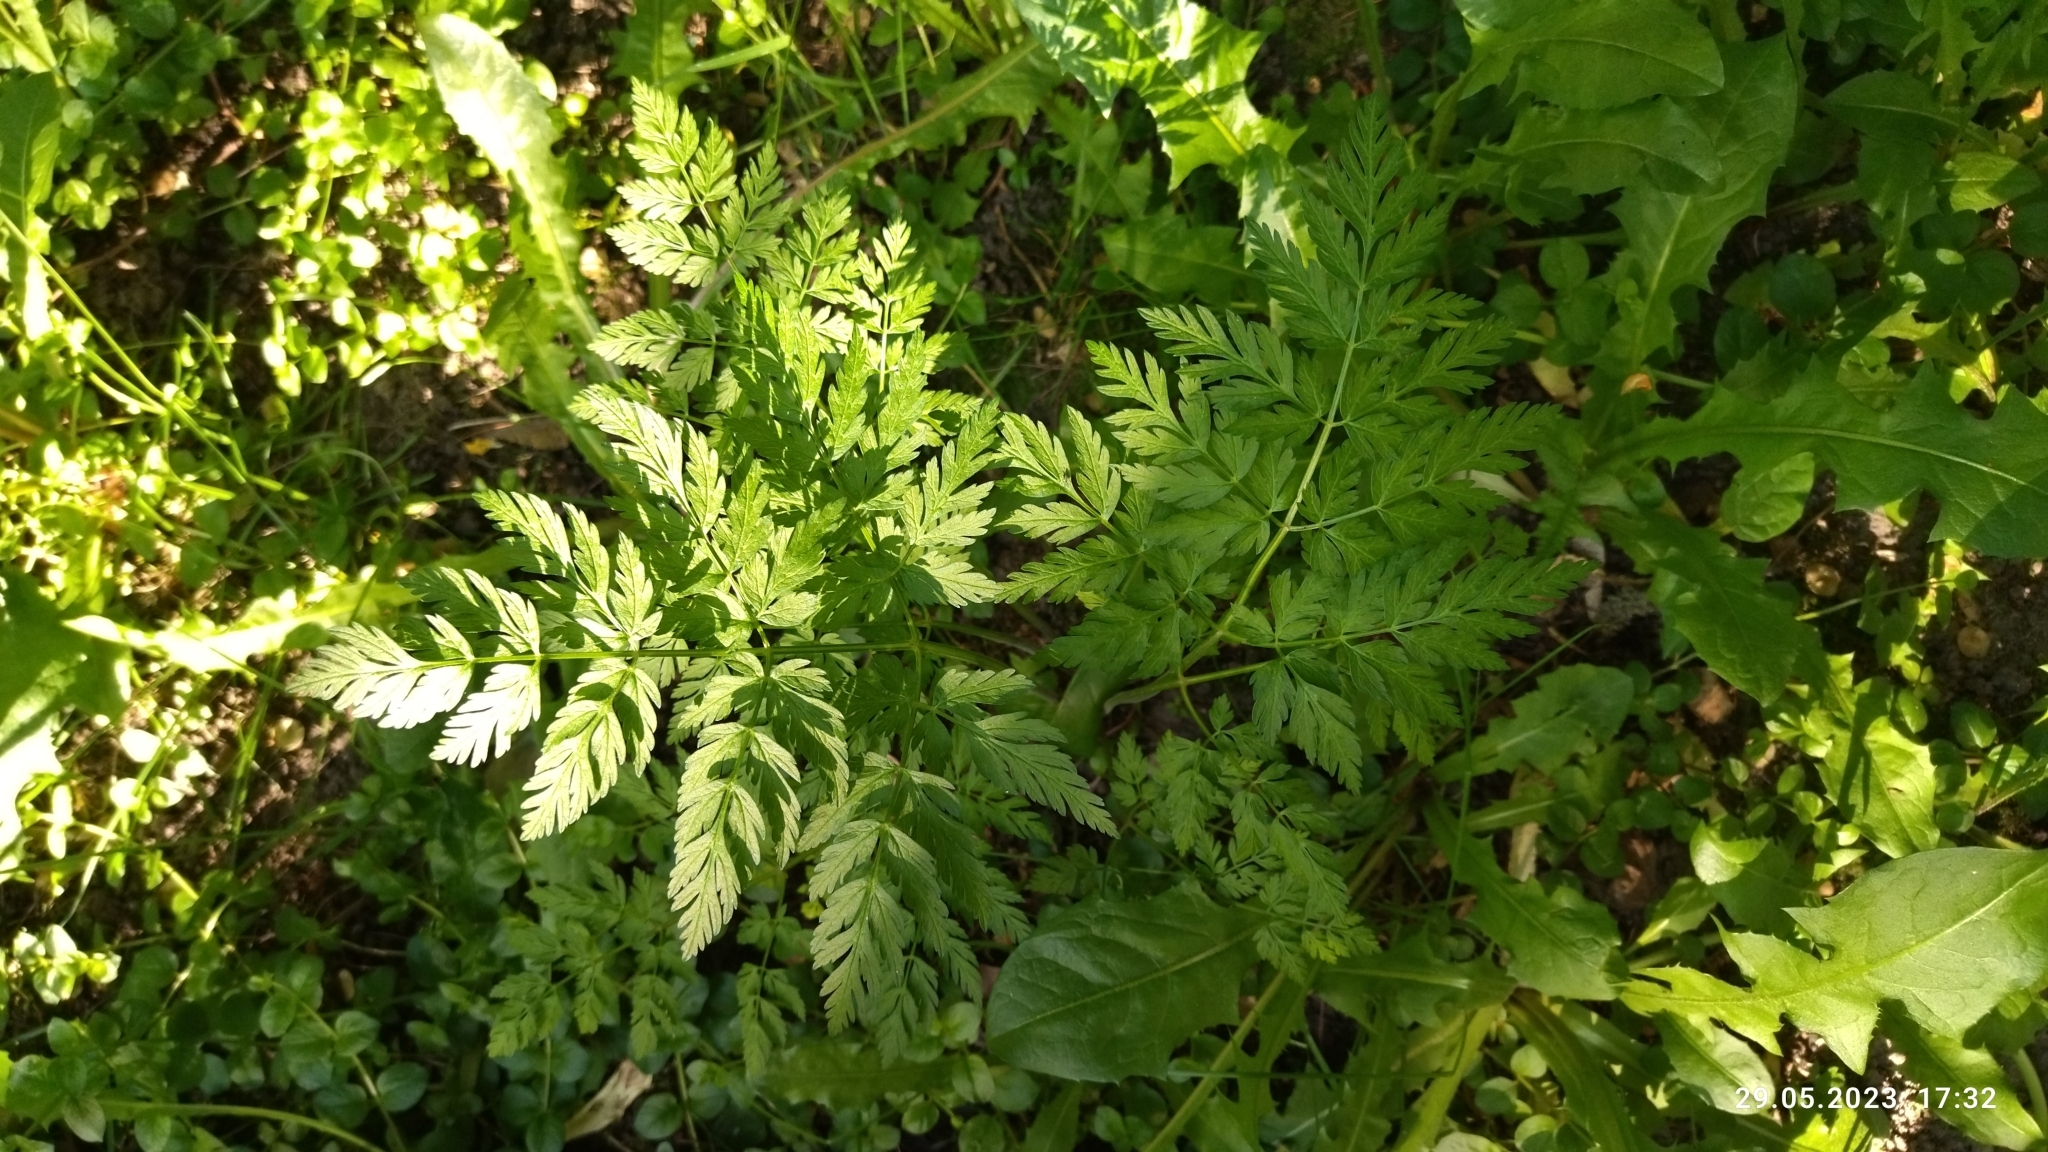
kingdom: Plantae
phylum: Tracheophyta
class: Magnoliopsida
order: Apiales
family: Apiaceae
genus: Anthriscus
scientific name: Anthriscus sylvestris
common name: Cow parsley
